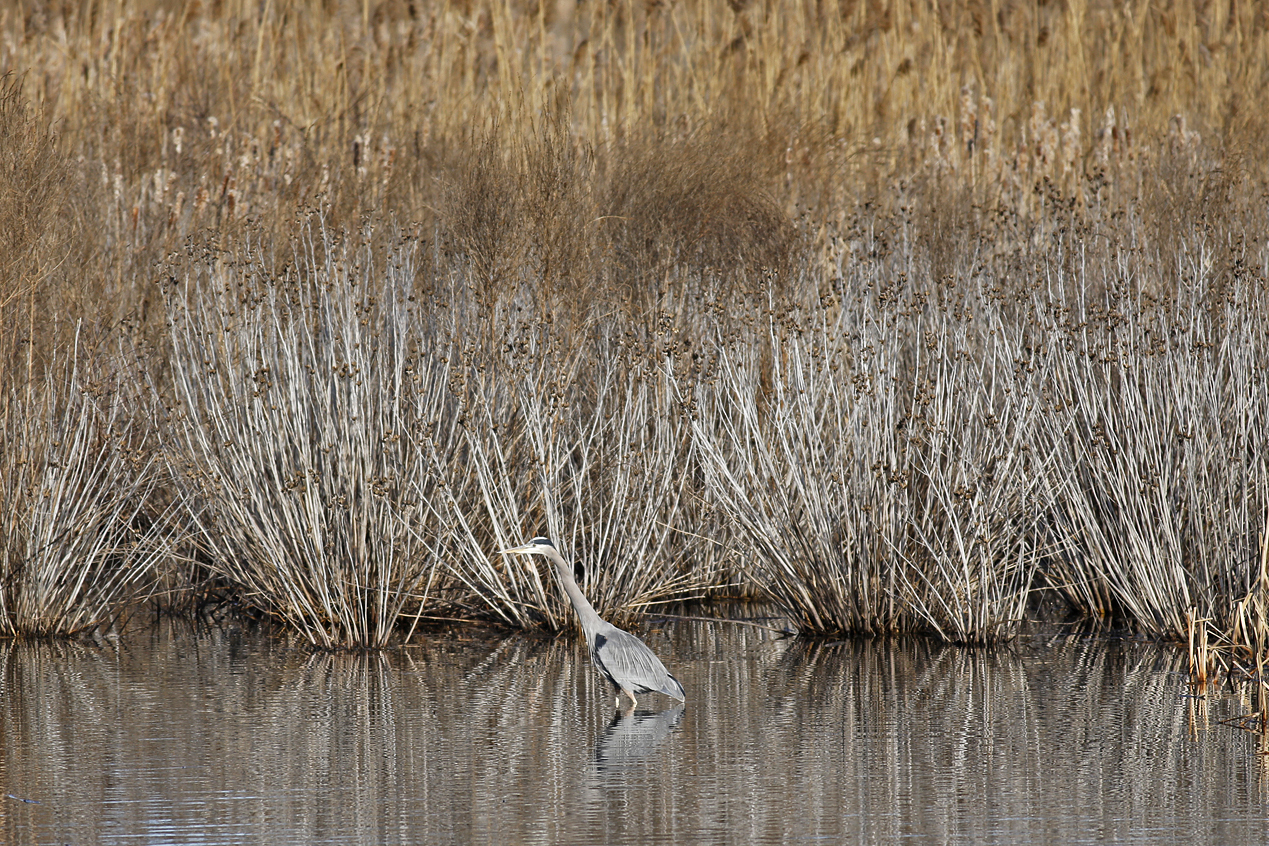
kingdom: Animalia
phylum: Chordata
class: Aves
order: Pelecaniformes
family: Ardeidae
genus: Ardea
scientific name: Ardea herodias
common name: Great blue heron
